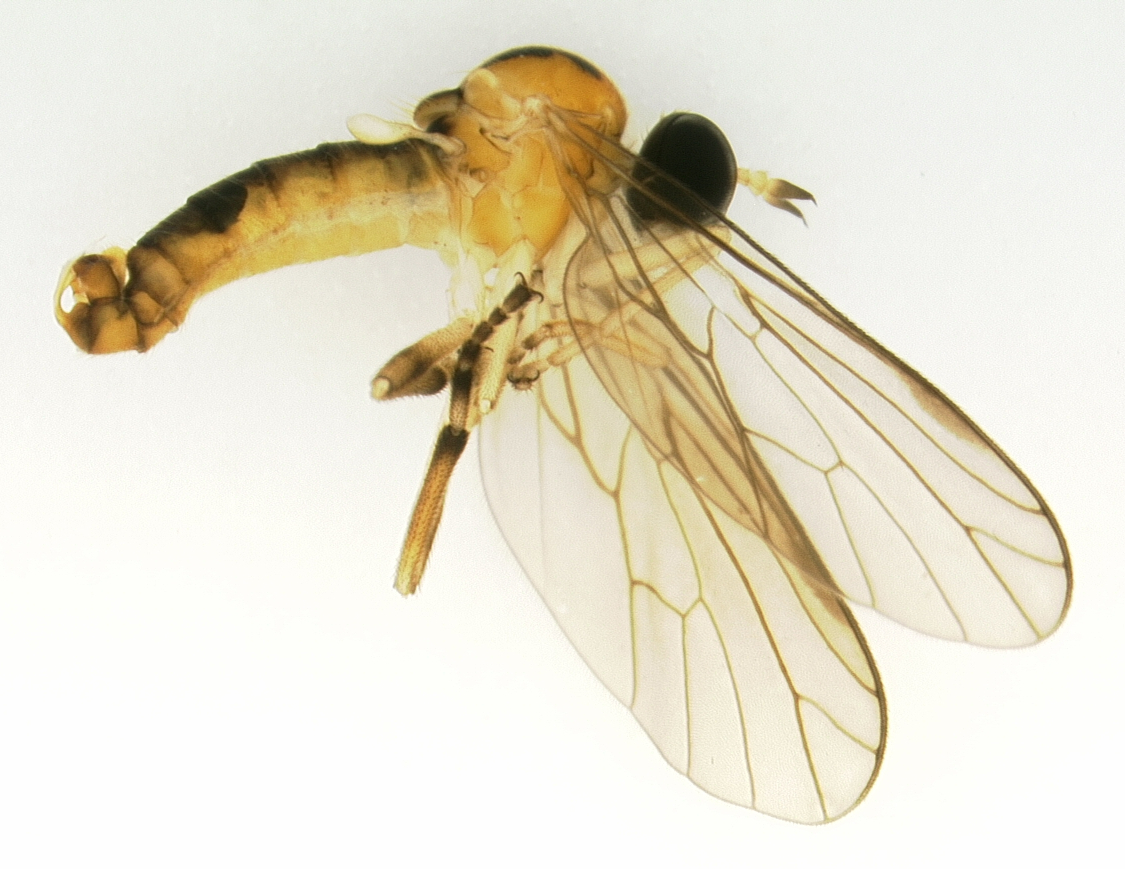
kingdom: Animalia
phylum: Arthropoda
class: Insecta
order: Diptera
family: Empididae
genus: Hesperempis
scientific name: Hesperempis
